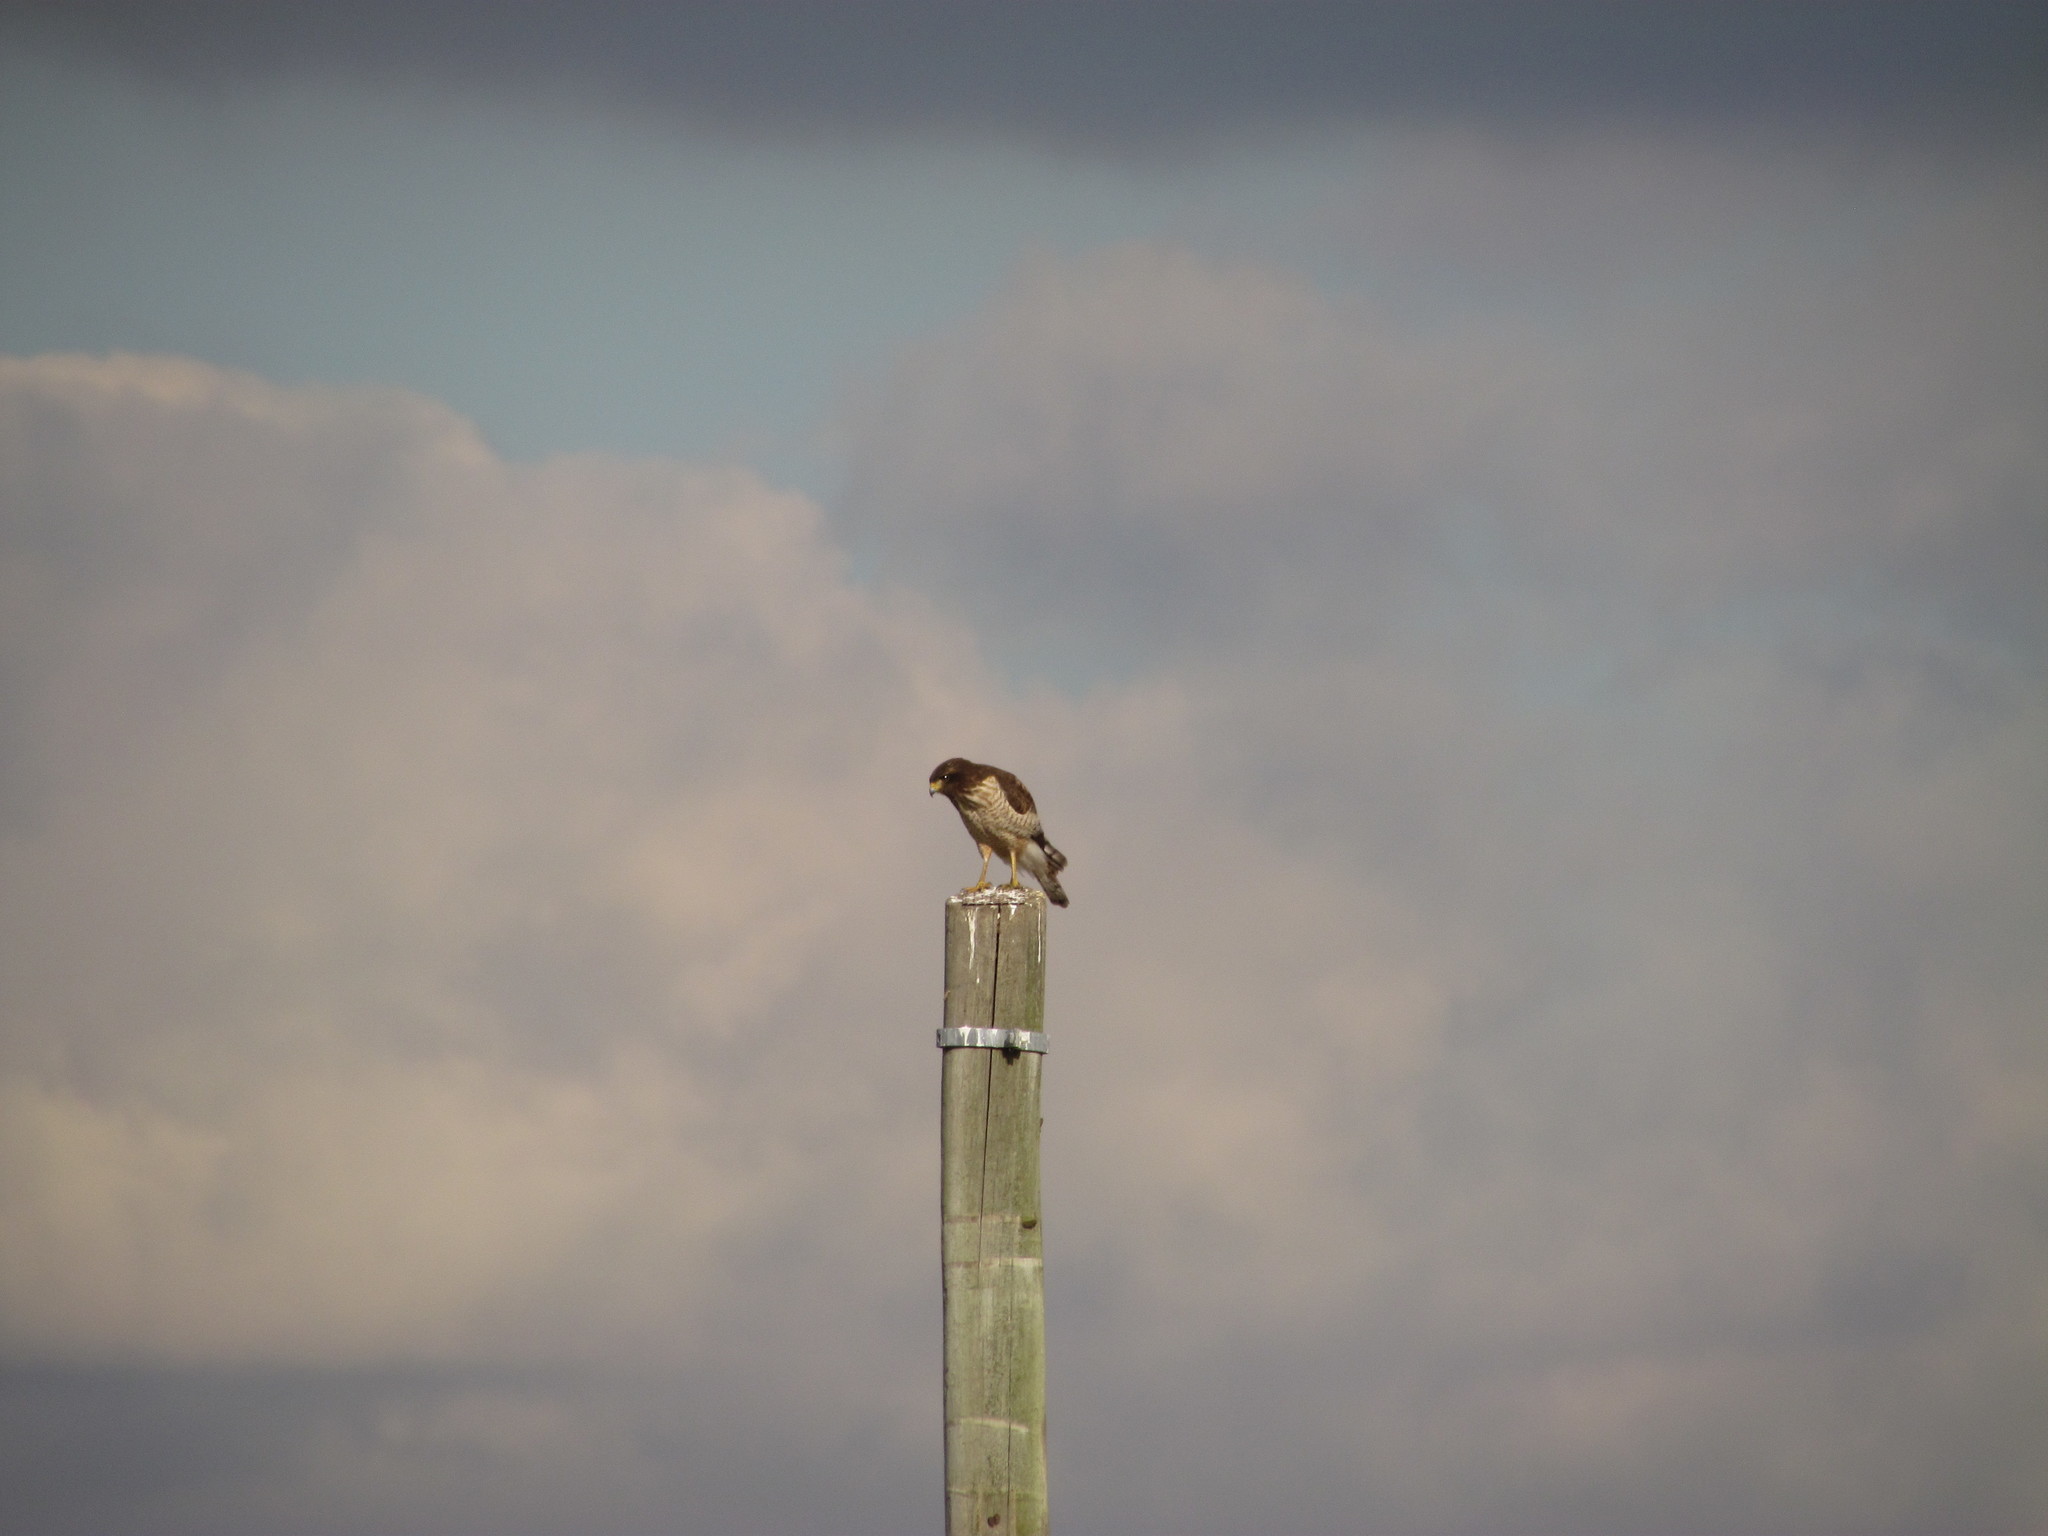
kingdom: Animalia
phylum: Chordata
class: Aves
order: Accipitriformes
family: Accipitridae
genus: Rupornis
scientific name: Rupornis magnirostris
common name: Roadside hawk
